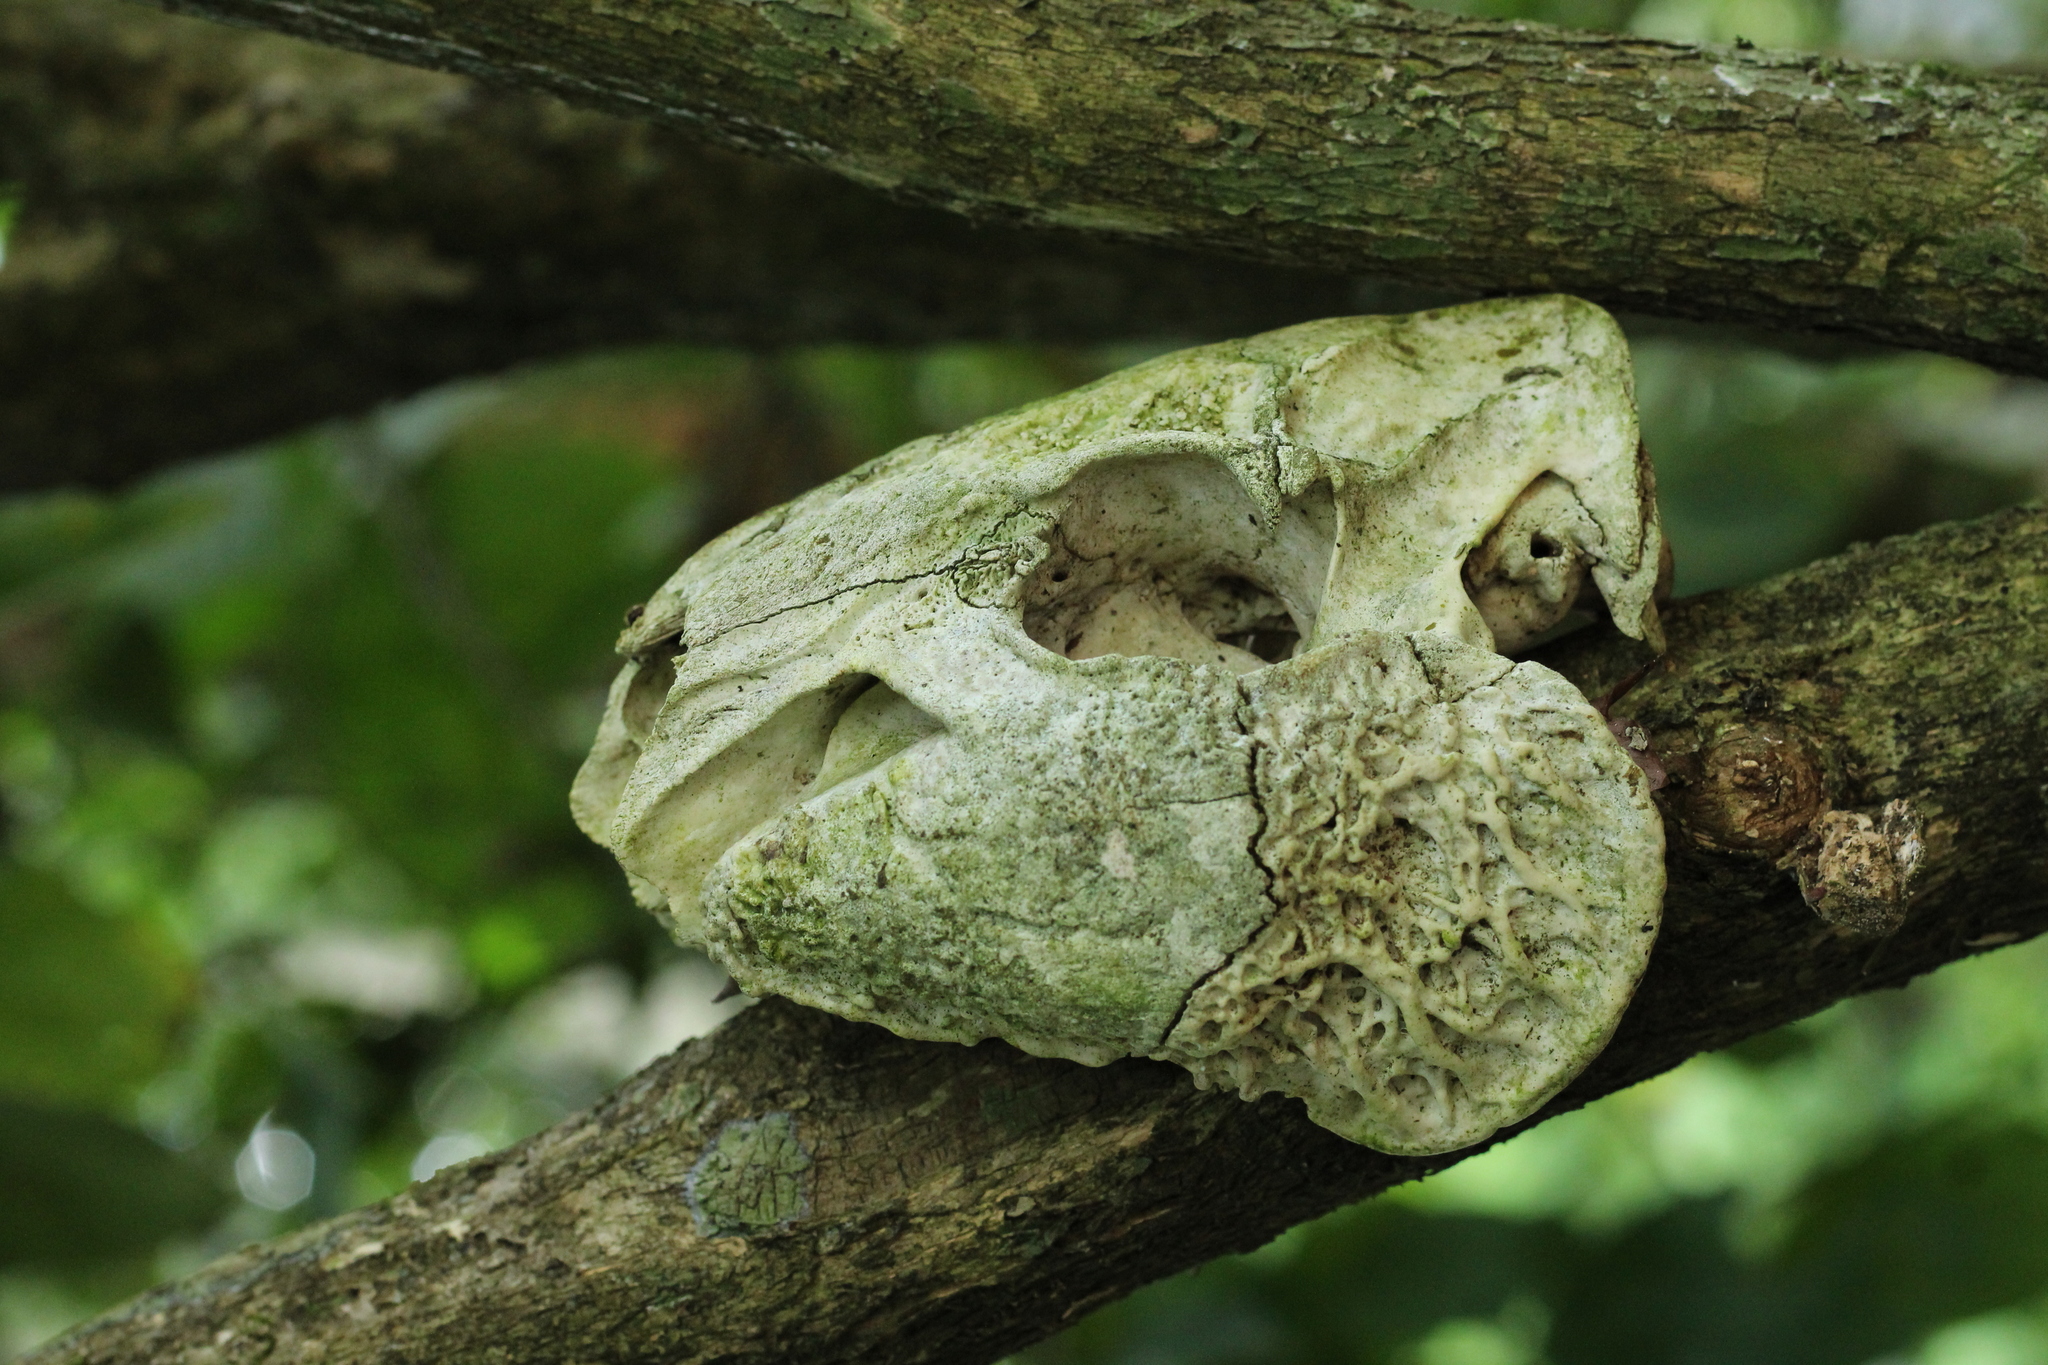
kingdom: Animalia
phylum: Chordata
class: Mammalia
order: Rodentia
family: Cuniculidae
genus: Cuniculus
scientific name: Cuniculus paca
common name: Lowland paca
